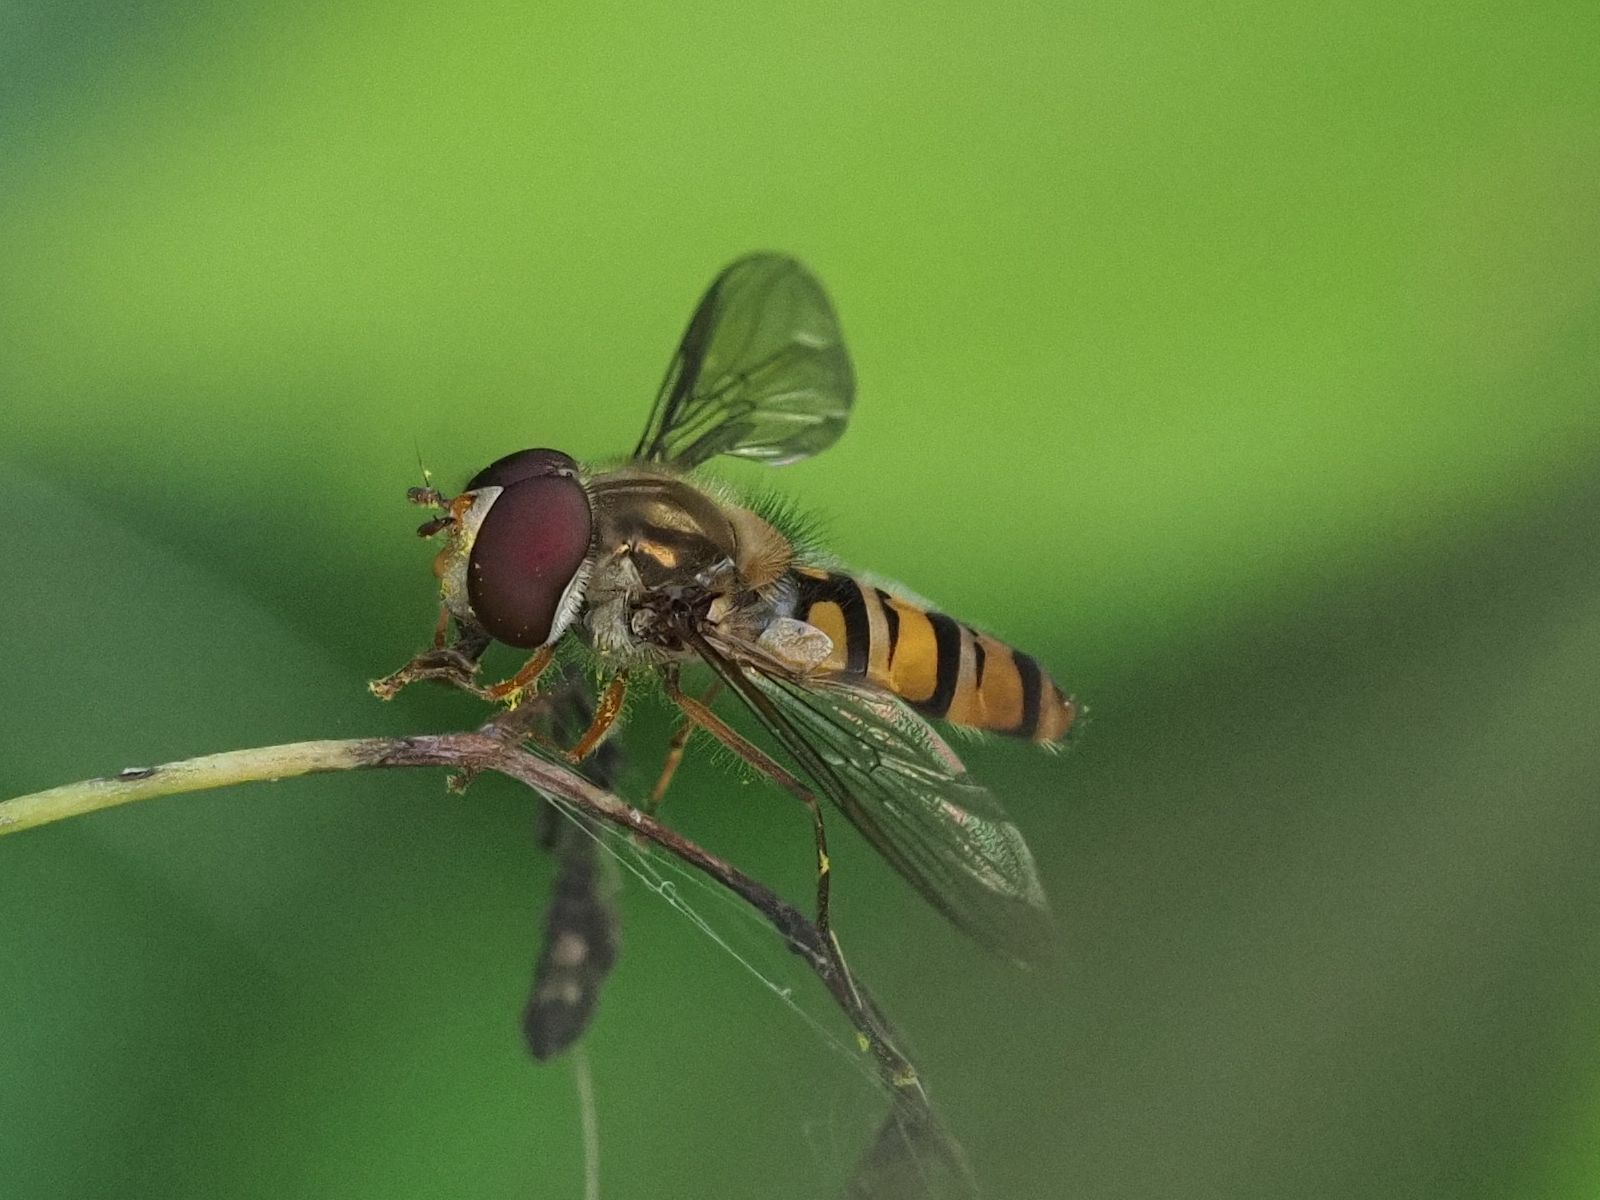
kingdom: Animalia
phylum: Arthropoda
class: Insecta
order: Diptera
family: Syrphidae
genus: Episyrphus
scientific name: Episyrphus balteatus
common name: Marmalade hoverfly
